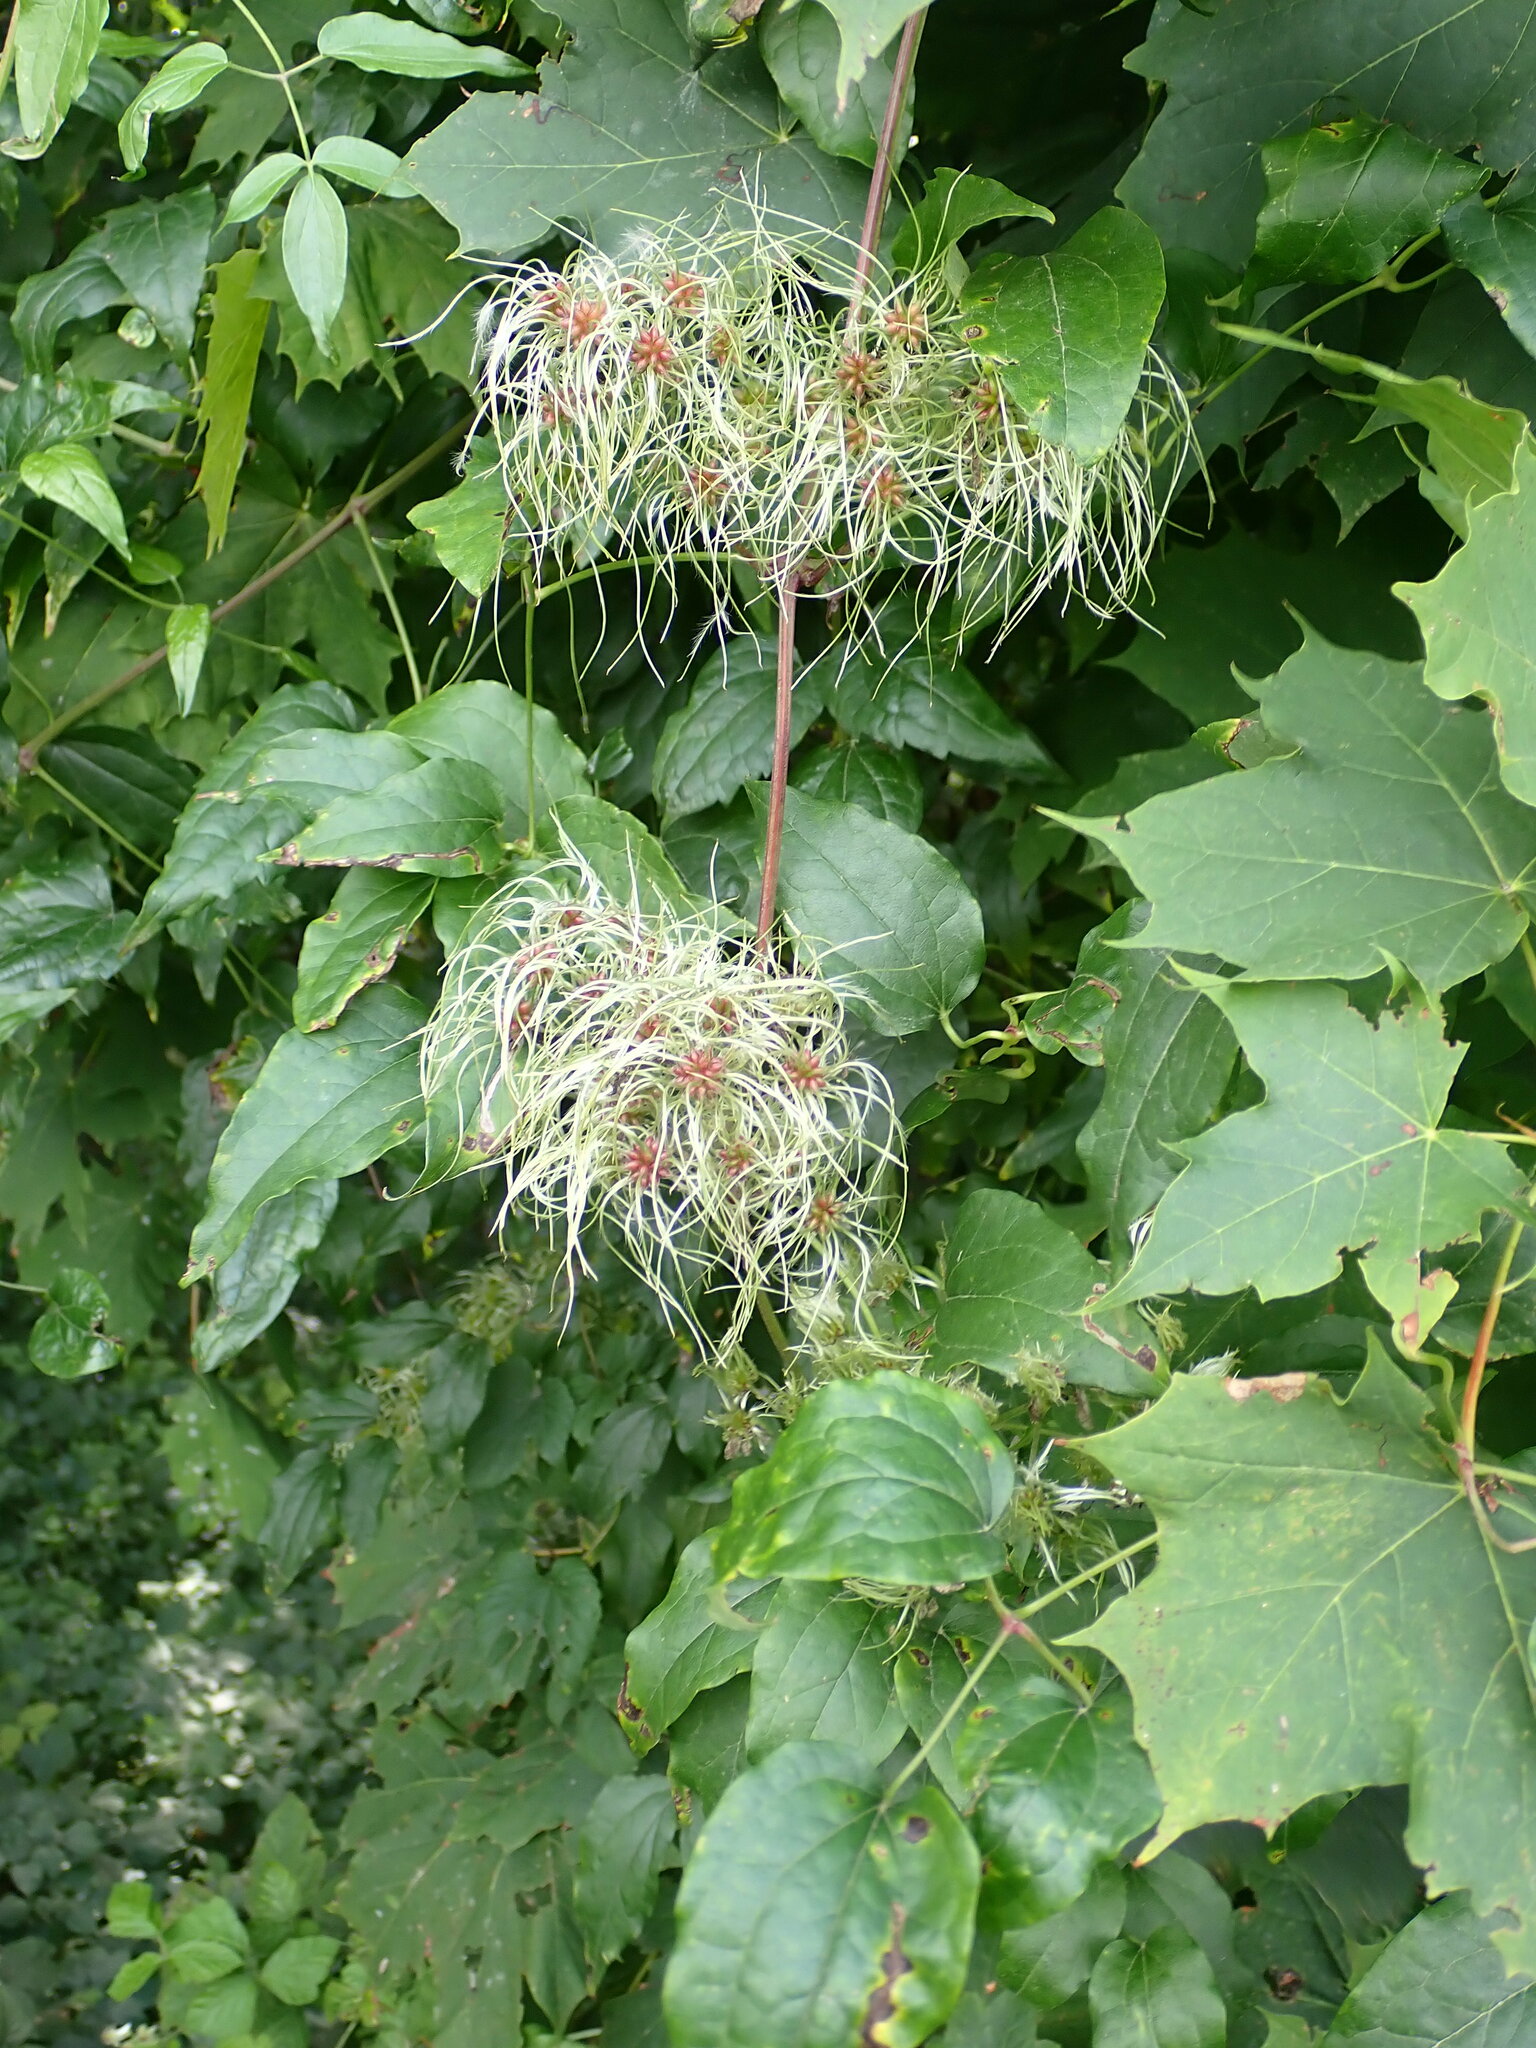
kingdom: Plantae
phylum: Tracheophyta
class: Magnoliopsida
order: Ranunculales
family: Ranunculaceae
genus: Clematis
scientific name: Clematis vitalba
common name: Evergreen clematis
